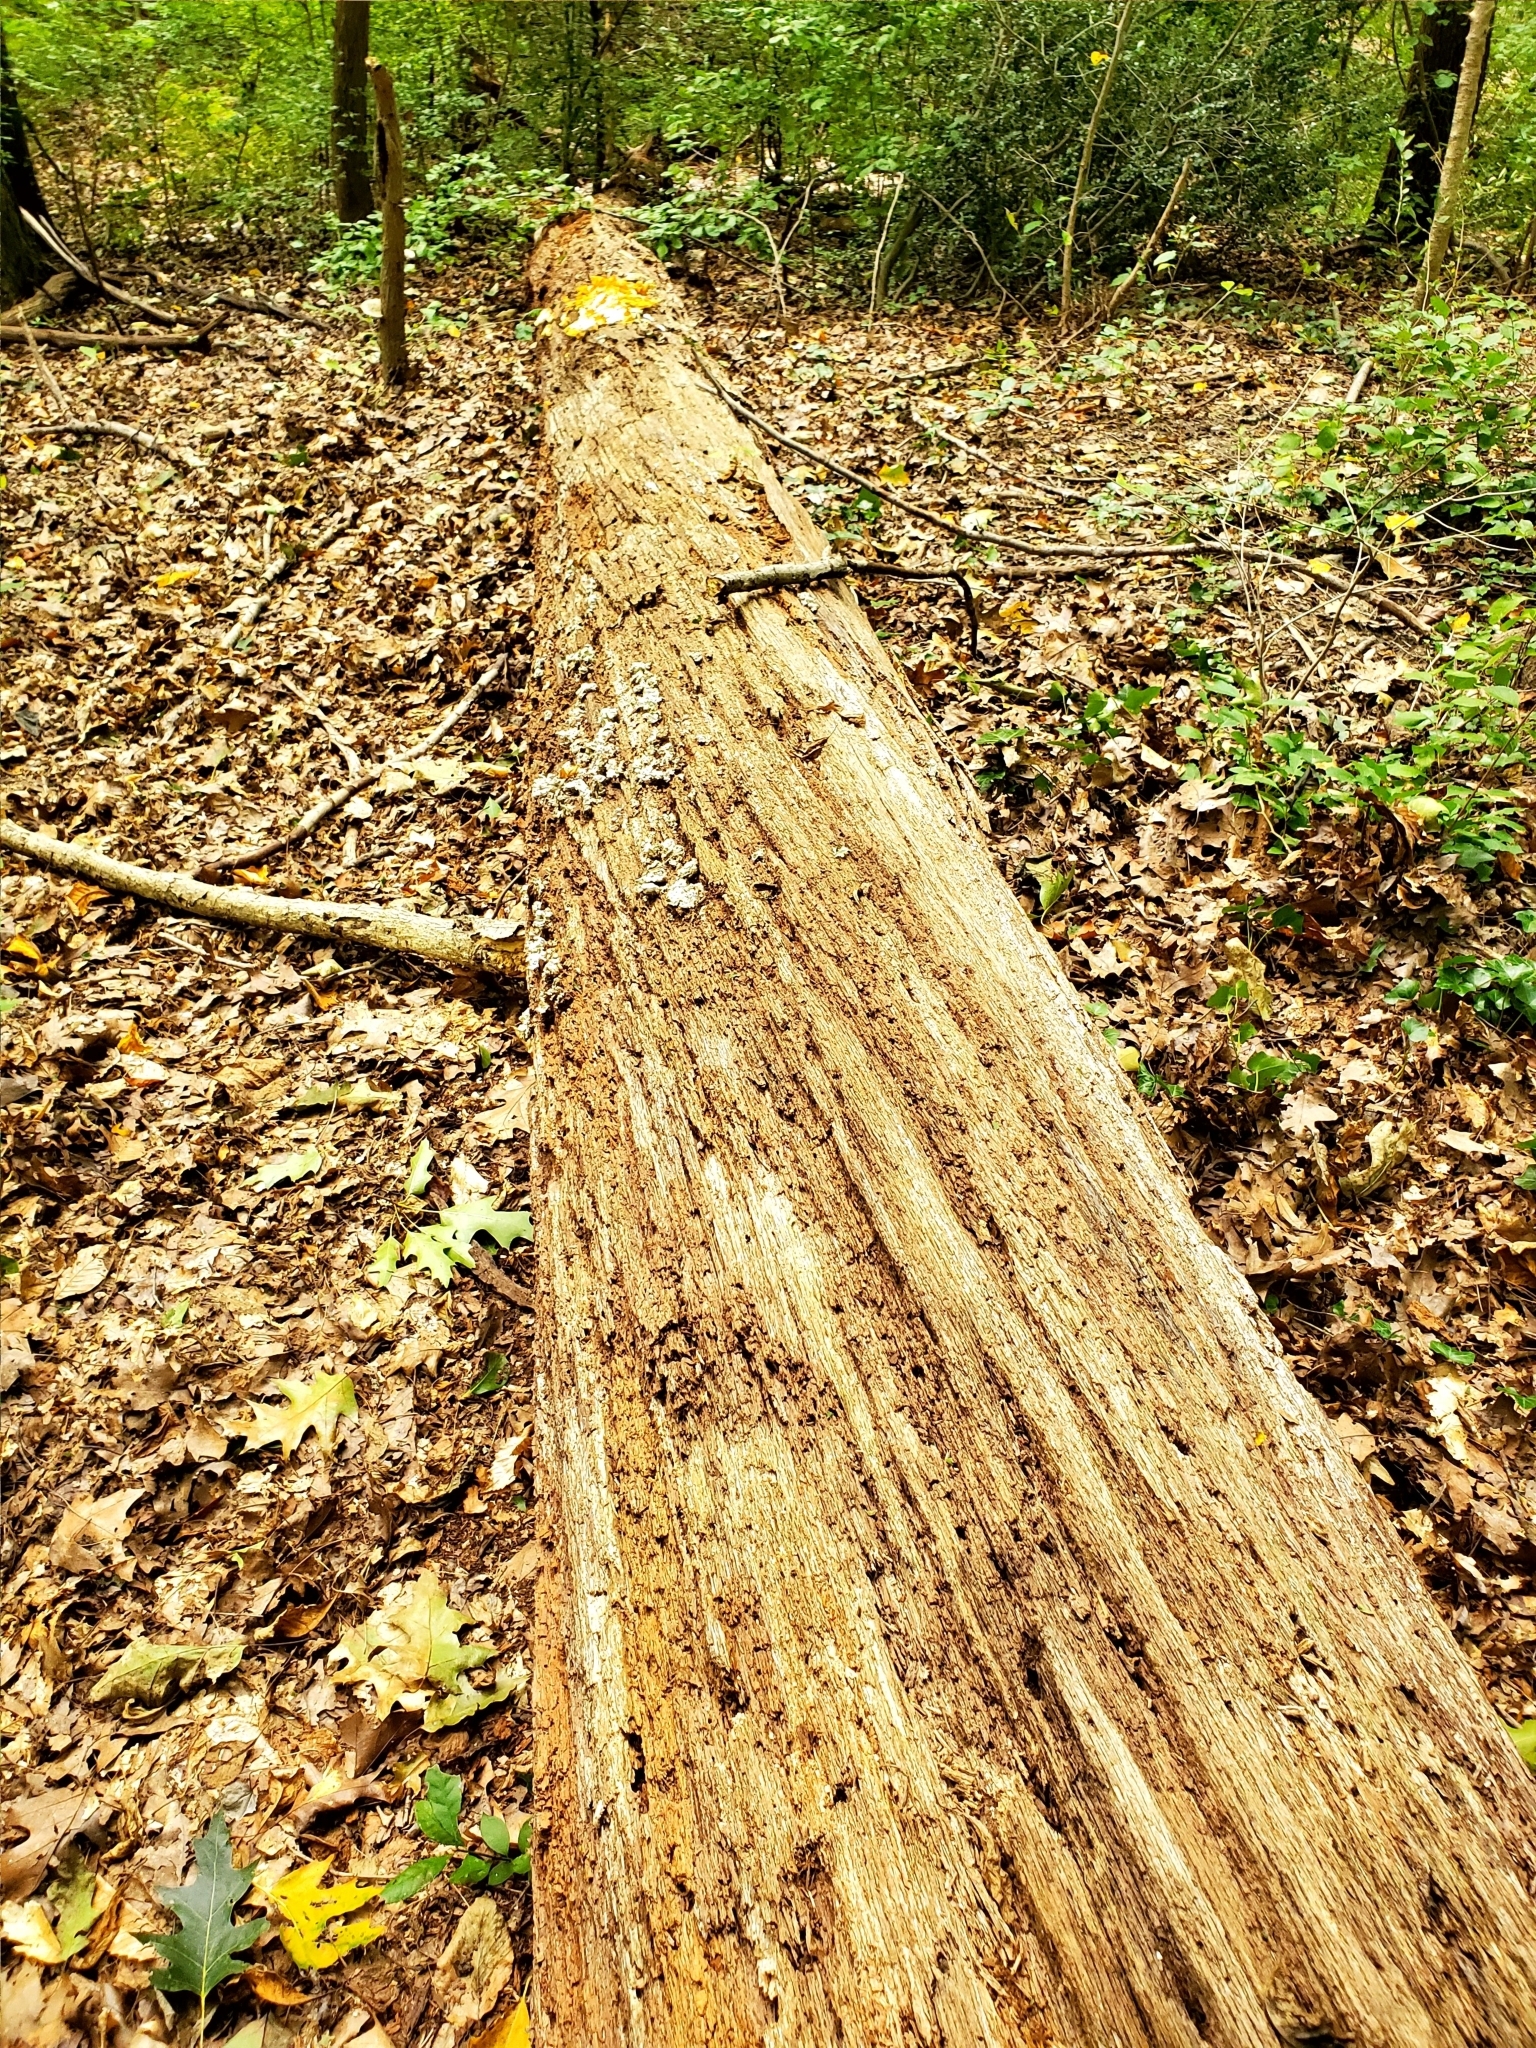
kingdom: Fungi
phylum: Basidiomycota
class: Agaricomycetes
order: Polyporales
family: Laetiporaceae
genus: Laetiporus
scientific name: Laetiporus sulphureus
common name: Chicken of the woods
